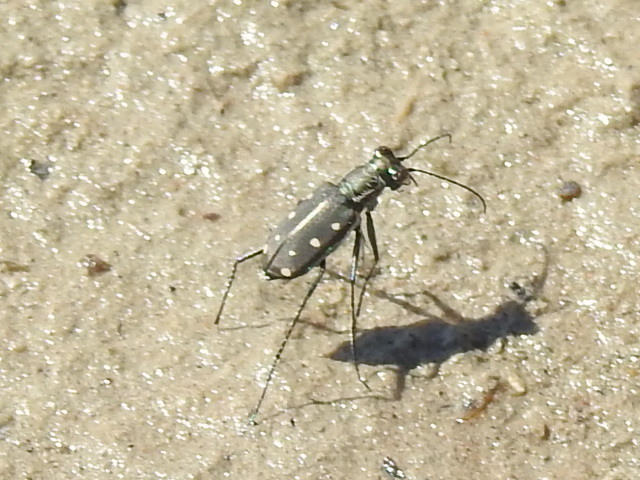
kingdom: Animalia
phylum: Arthropoda
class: Insecta
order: Coleoptera
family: Carabidae
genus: Cicindela
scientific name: Cicindela ocellata
